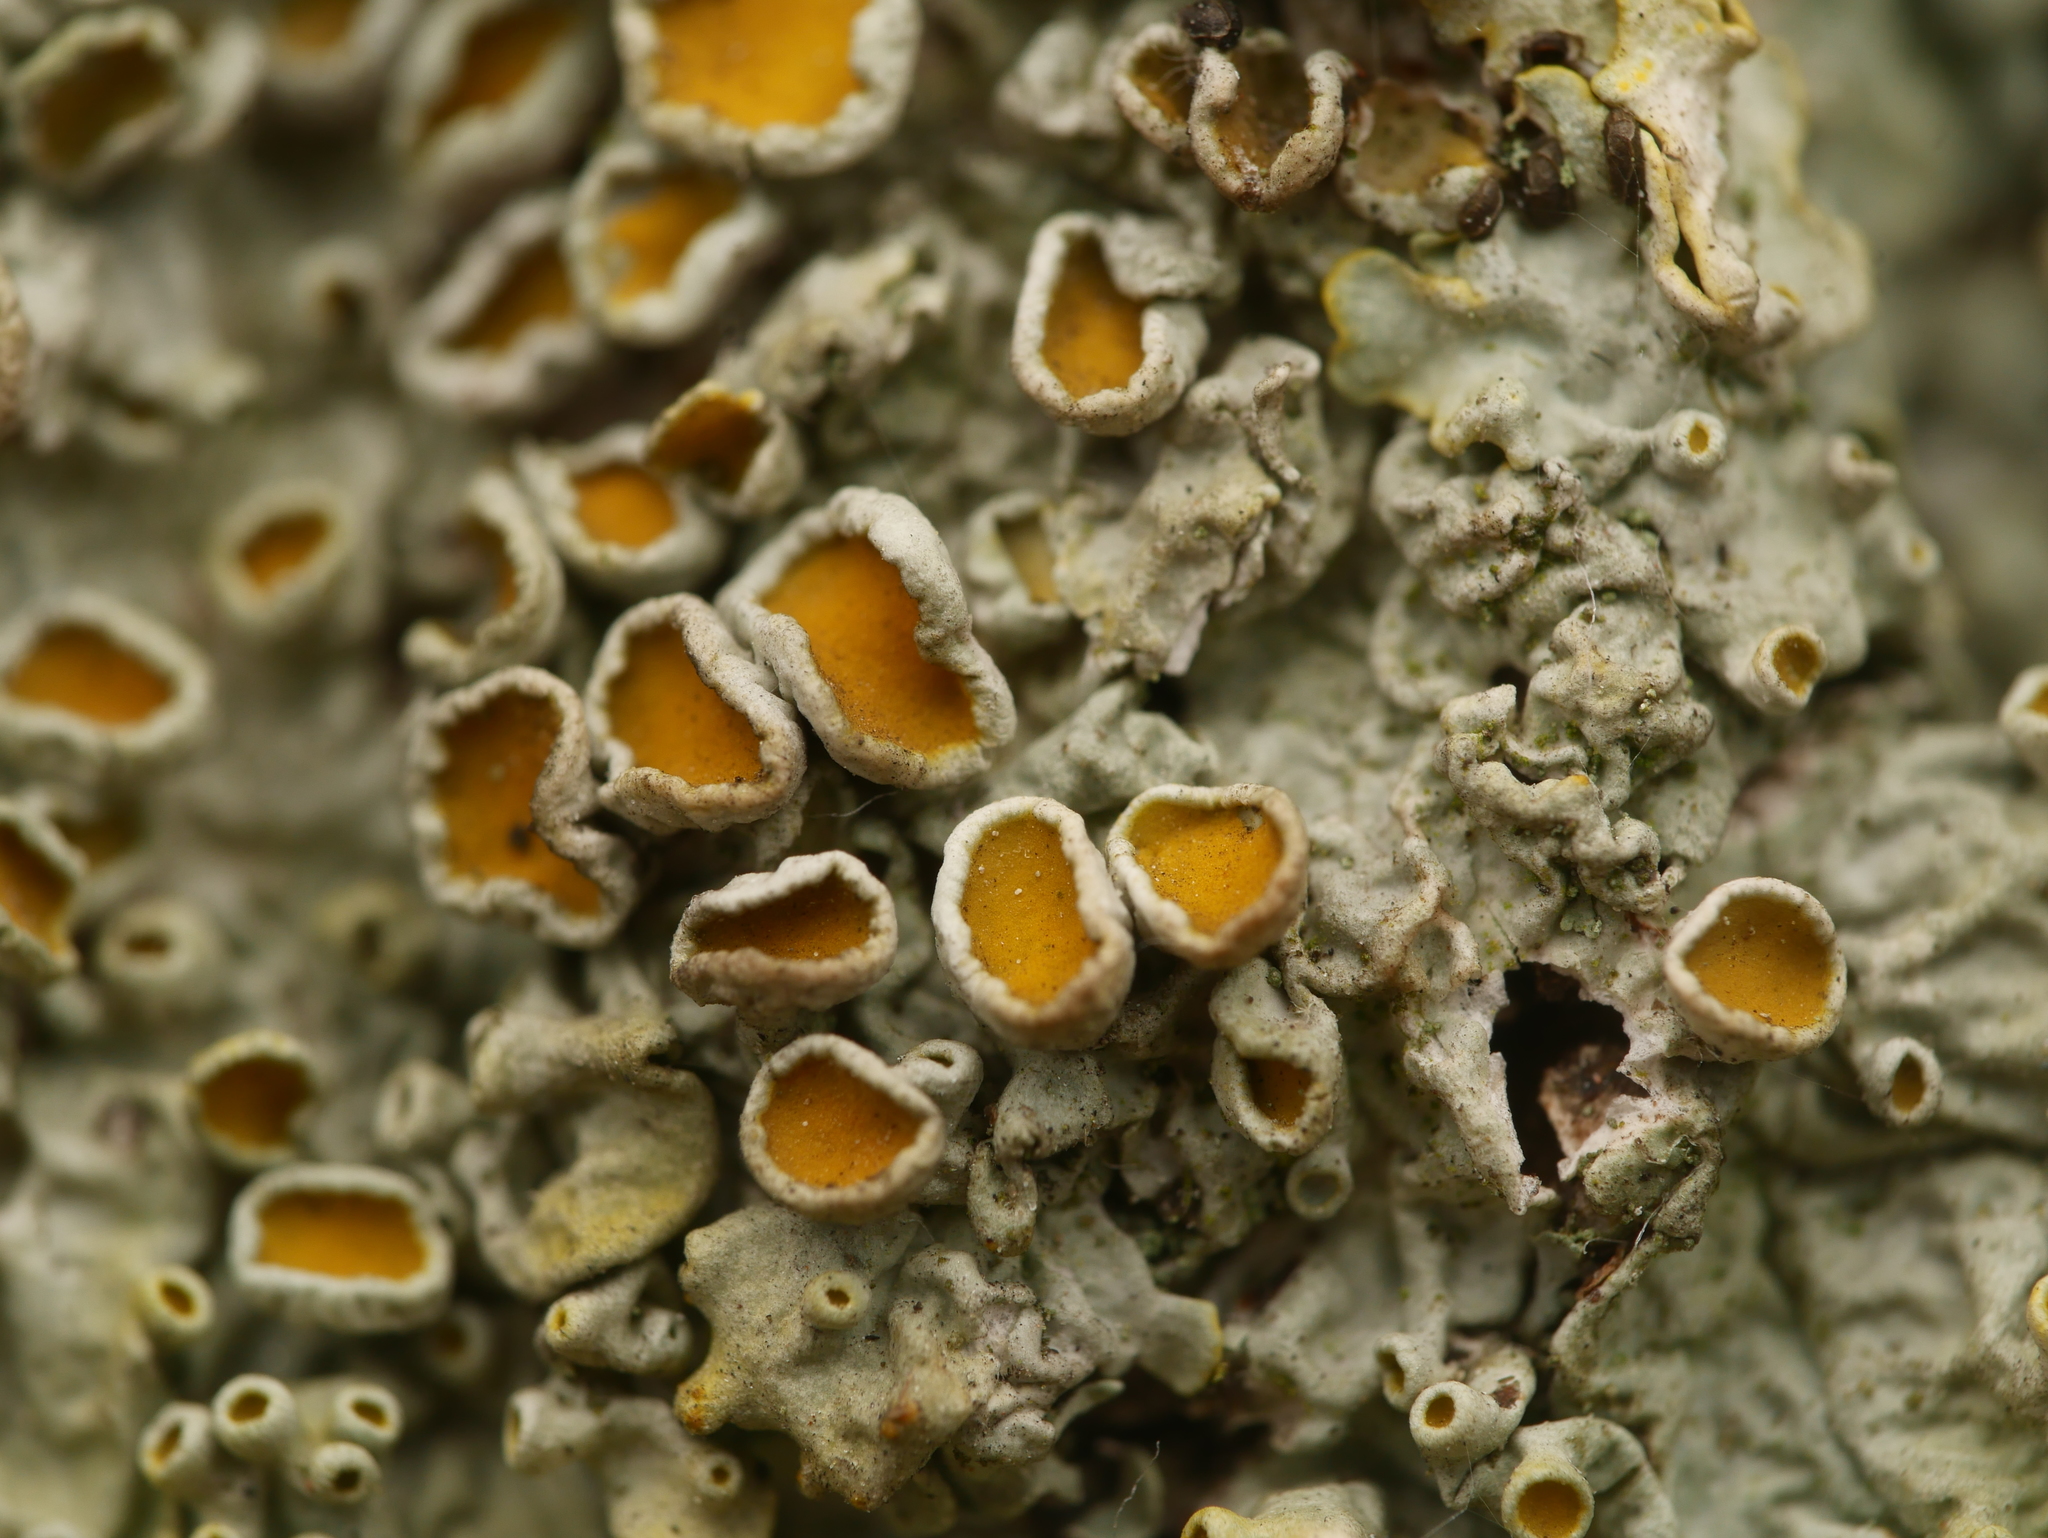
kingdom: Fungi
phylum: Ascomycota
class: Lecanoromycetes
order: Teloschistales
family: Teloschistaceae
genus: Xanthoria
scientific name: Xanthoria parietina
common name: Common orange lichen
